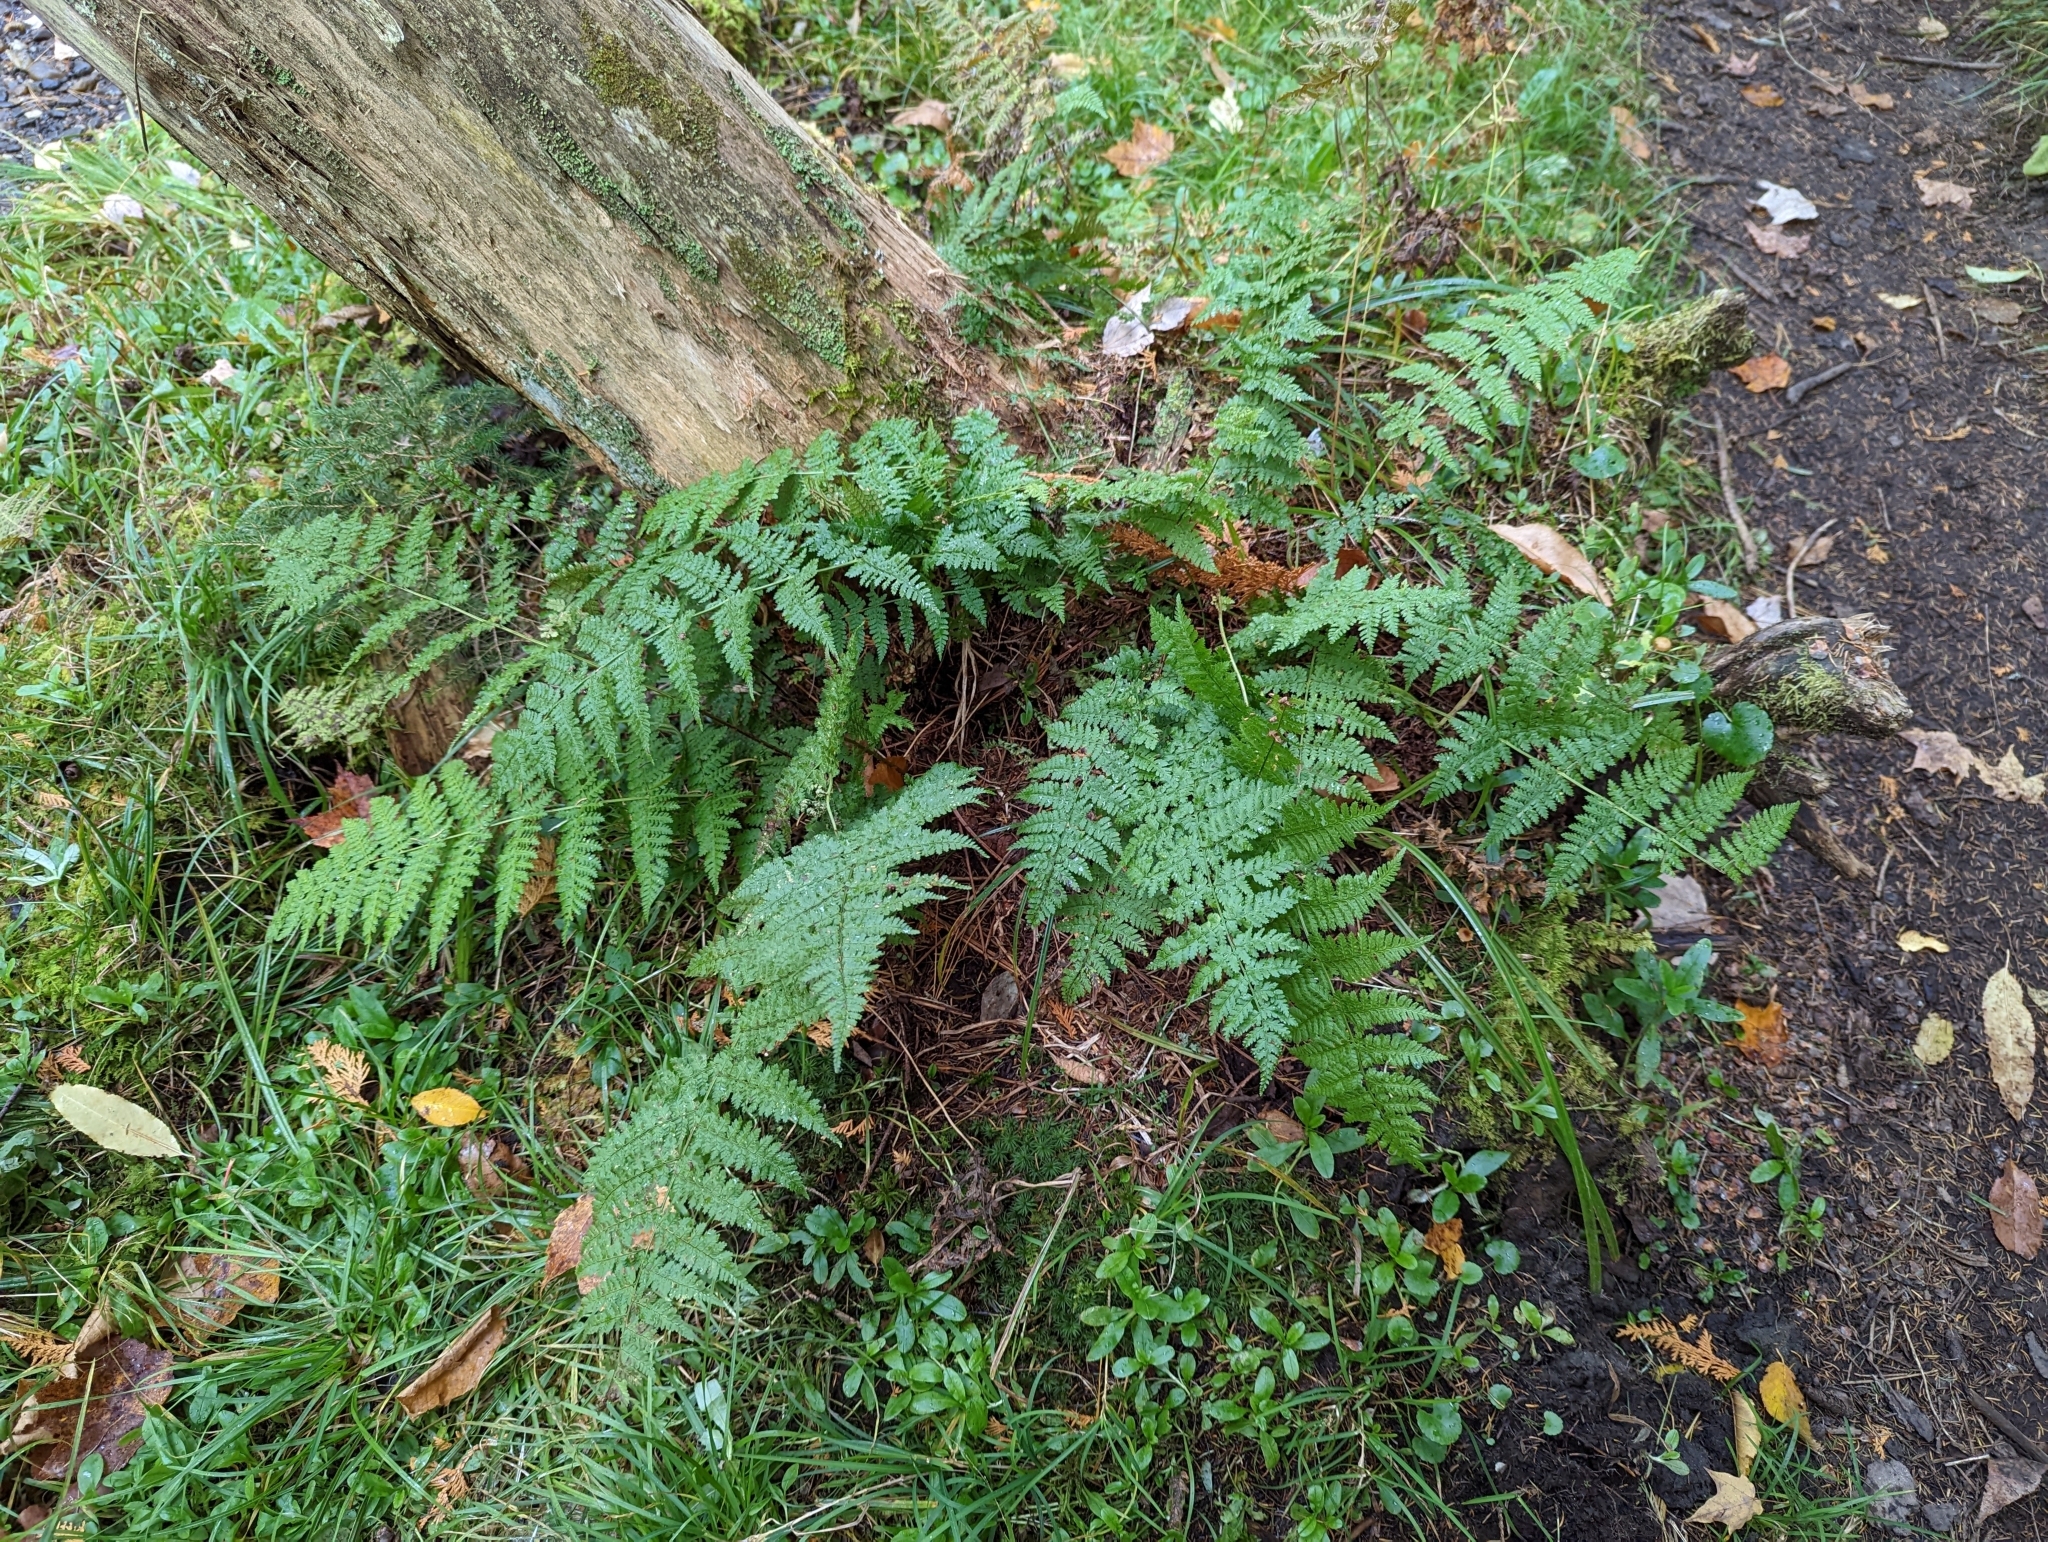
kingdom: Plantae
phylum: Tracheophyta
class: Polypodiopsida
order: Polypodiales
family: Dryopteridaceae
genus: Dryopteris
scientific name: Dryopteris intermedia
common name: Evergreen wood fern
